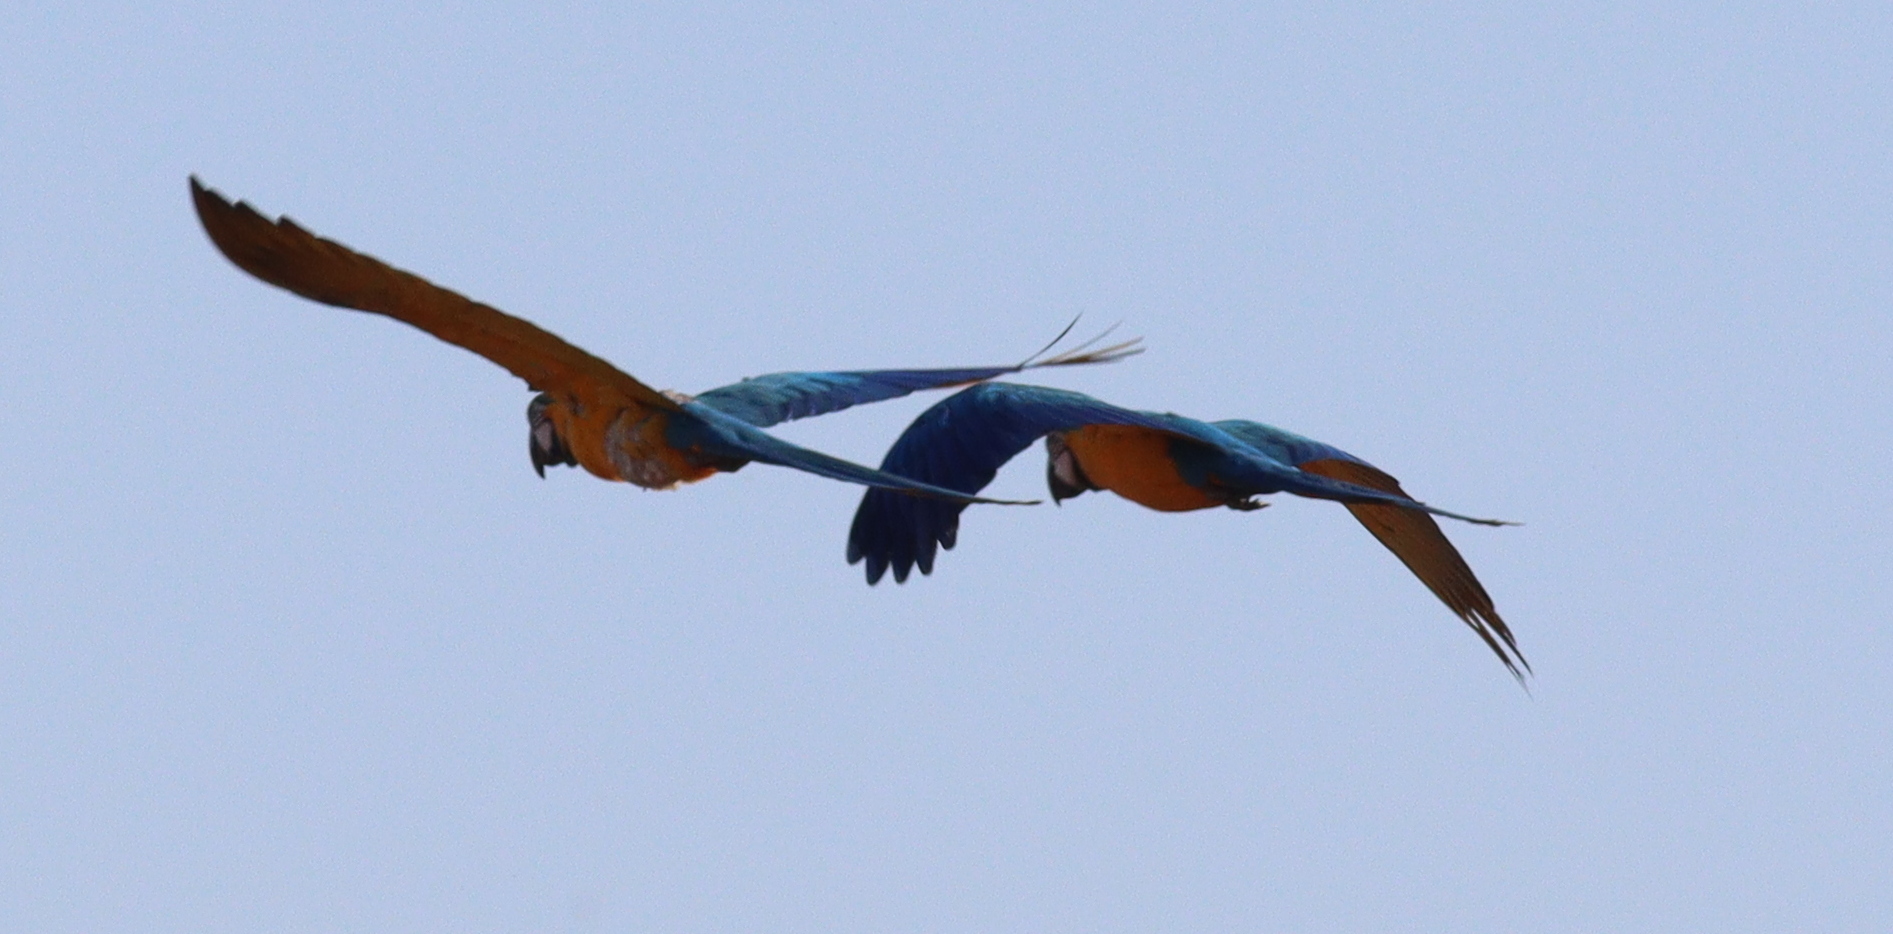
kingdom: Animalia
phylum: Chordata
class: Aves
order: Psittaciformes
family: Psittacidae
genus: Ara
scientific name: Ara ararauna
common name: Blue-and-yellow macaw
